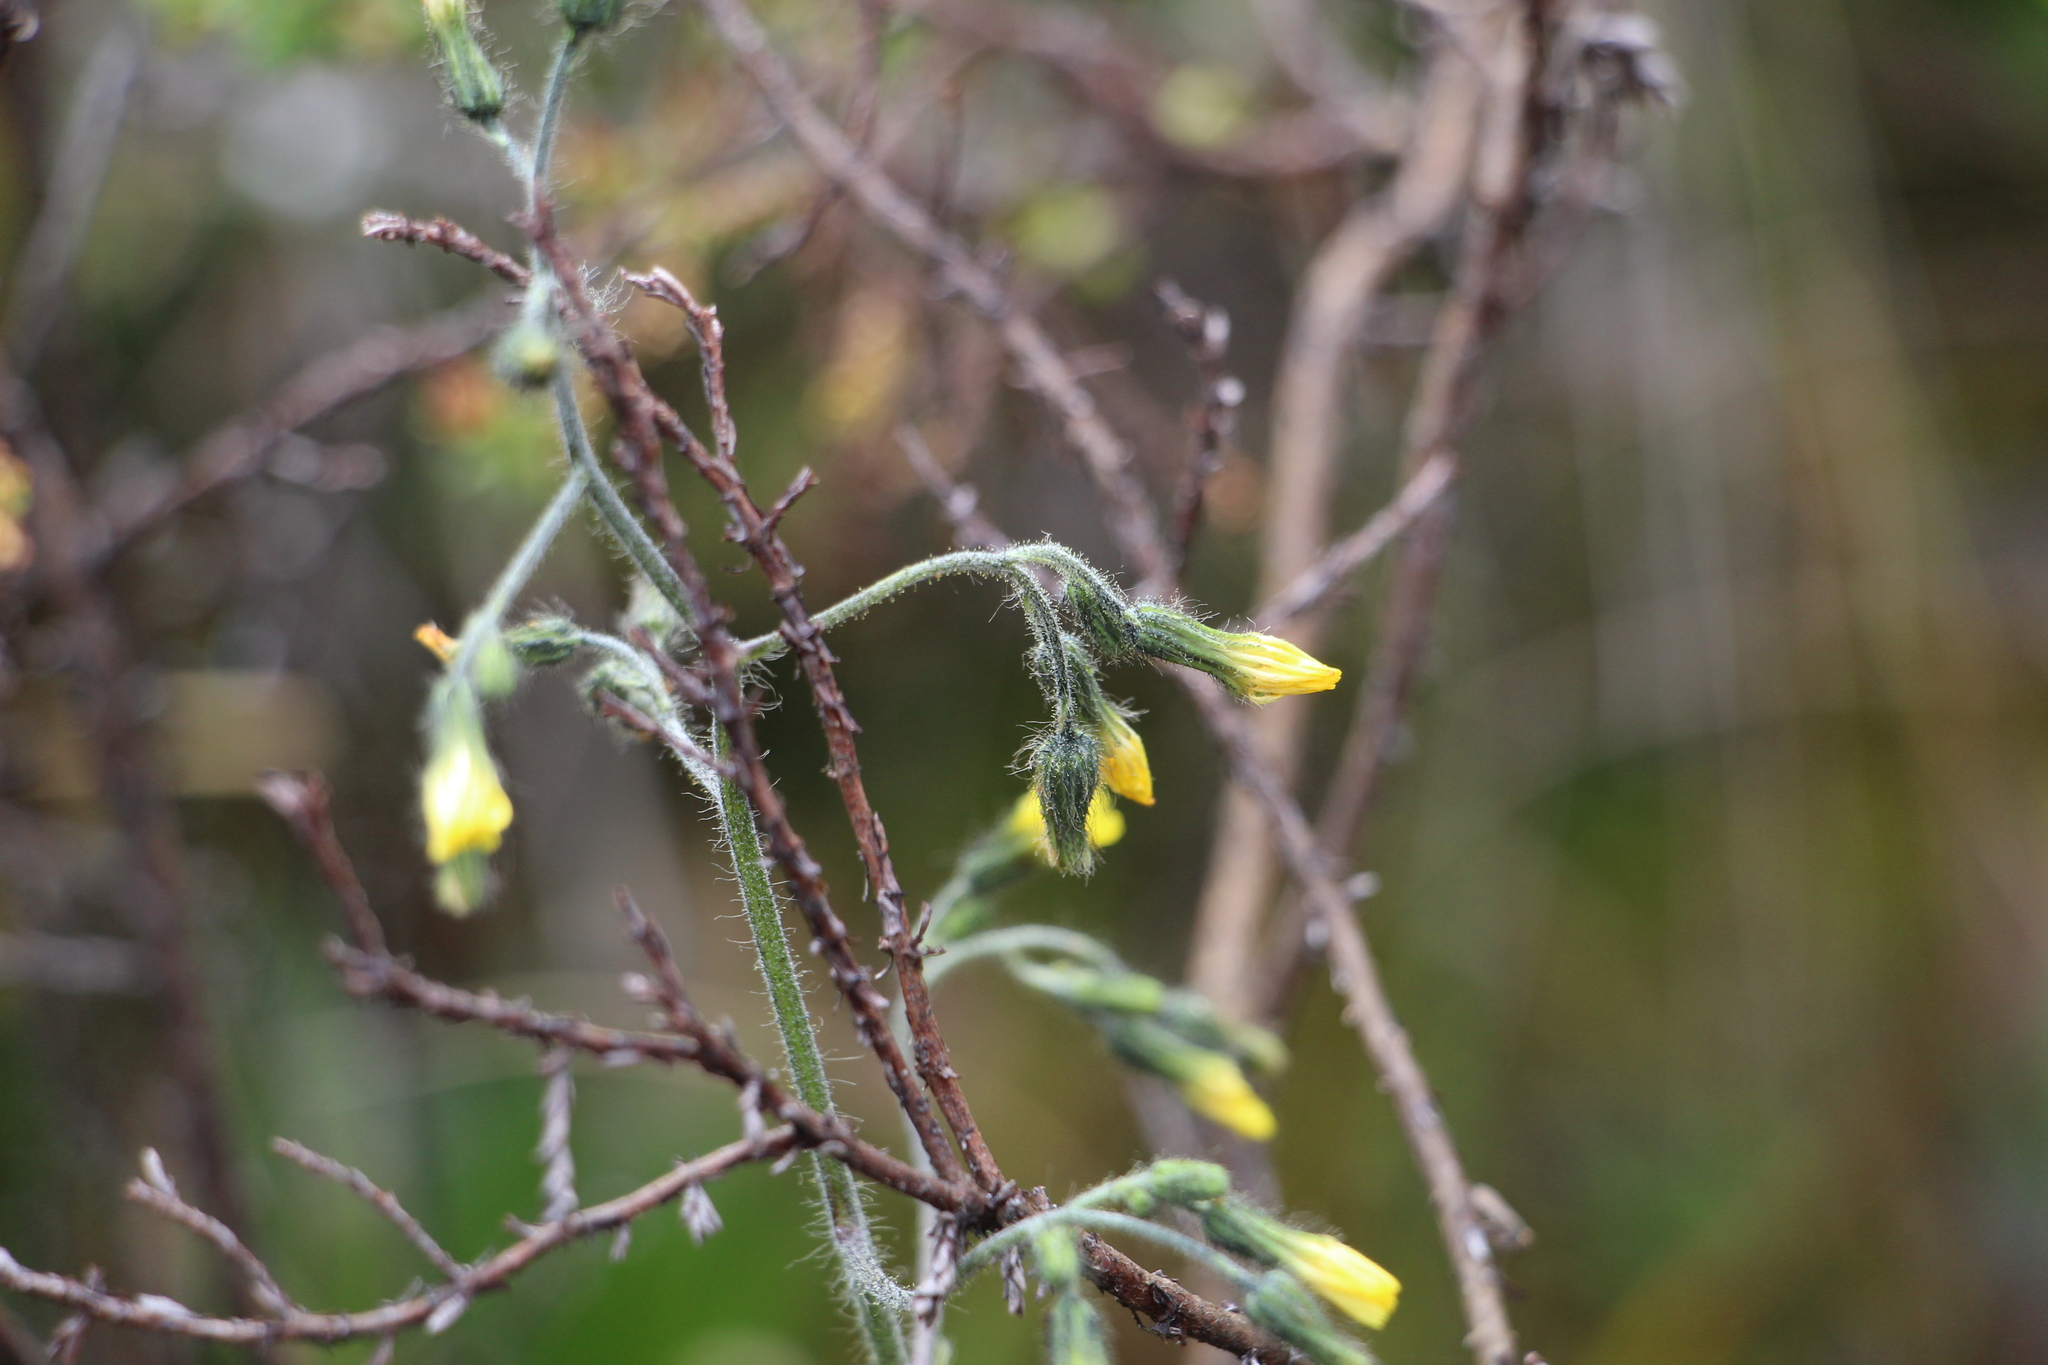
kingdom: Plantae
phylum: Tracheophyta
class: Magnoliopsida
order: Asterales
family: Asteraceae
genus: Hieracium
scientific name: Hieracium avilae
